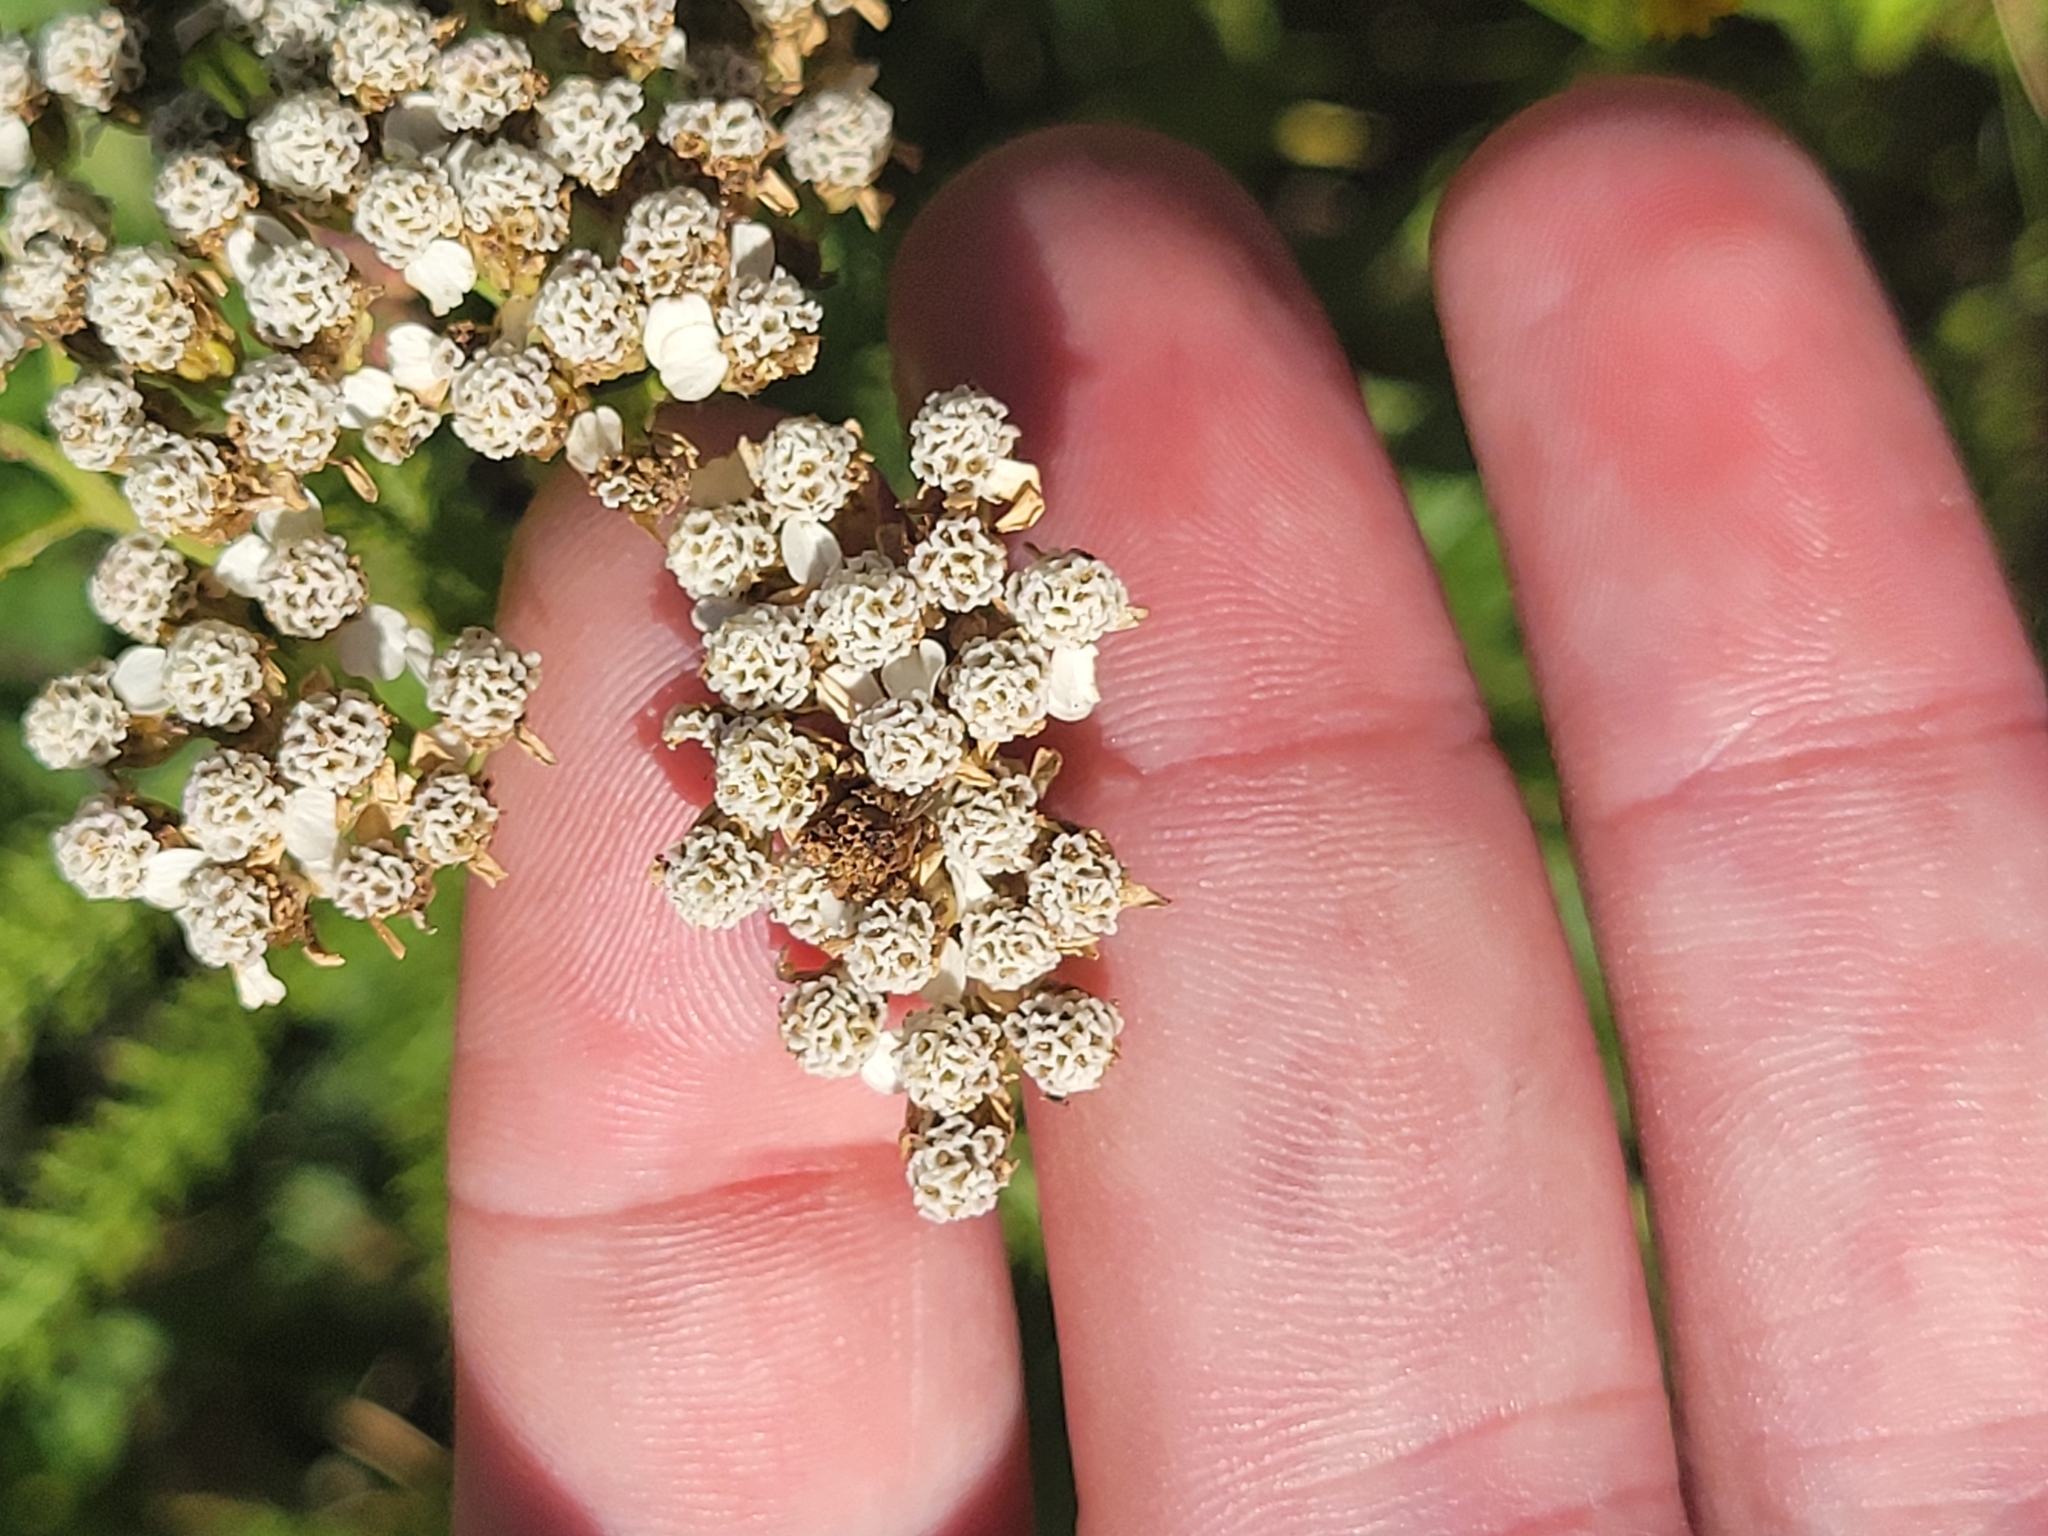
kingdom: Plantae
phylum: Tracheophyta
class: Magnoliopsida
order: Asterales
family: Asteraceae
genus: Achillea
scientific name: Achillea millefolium
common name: Yarrow
